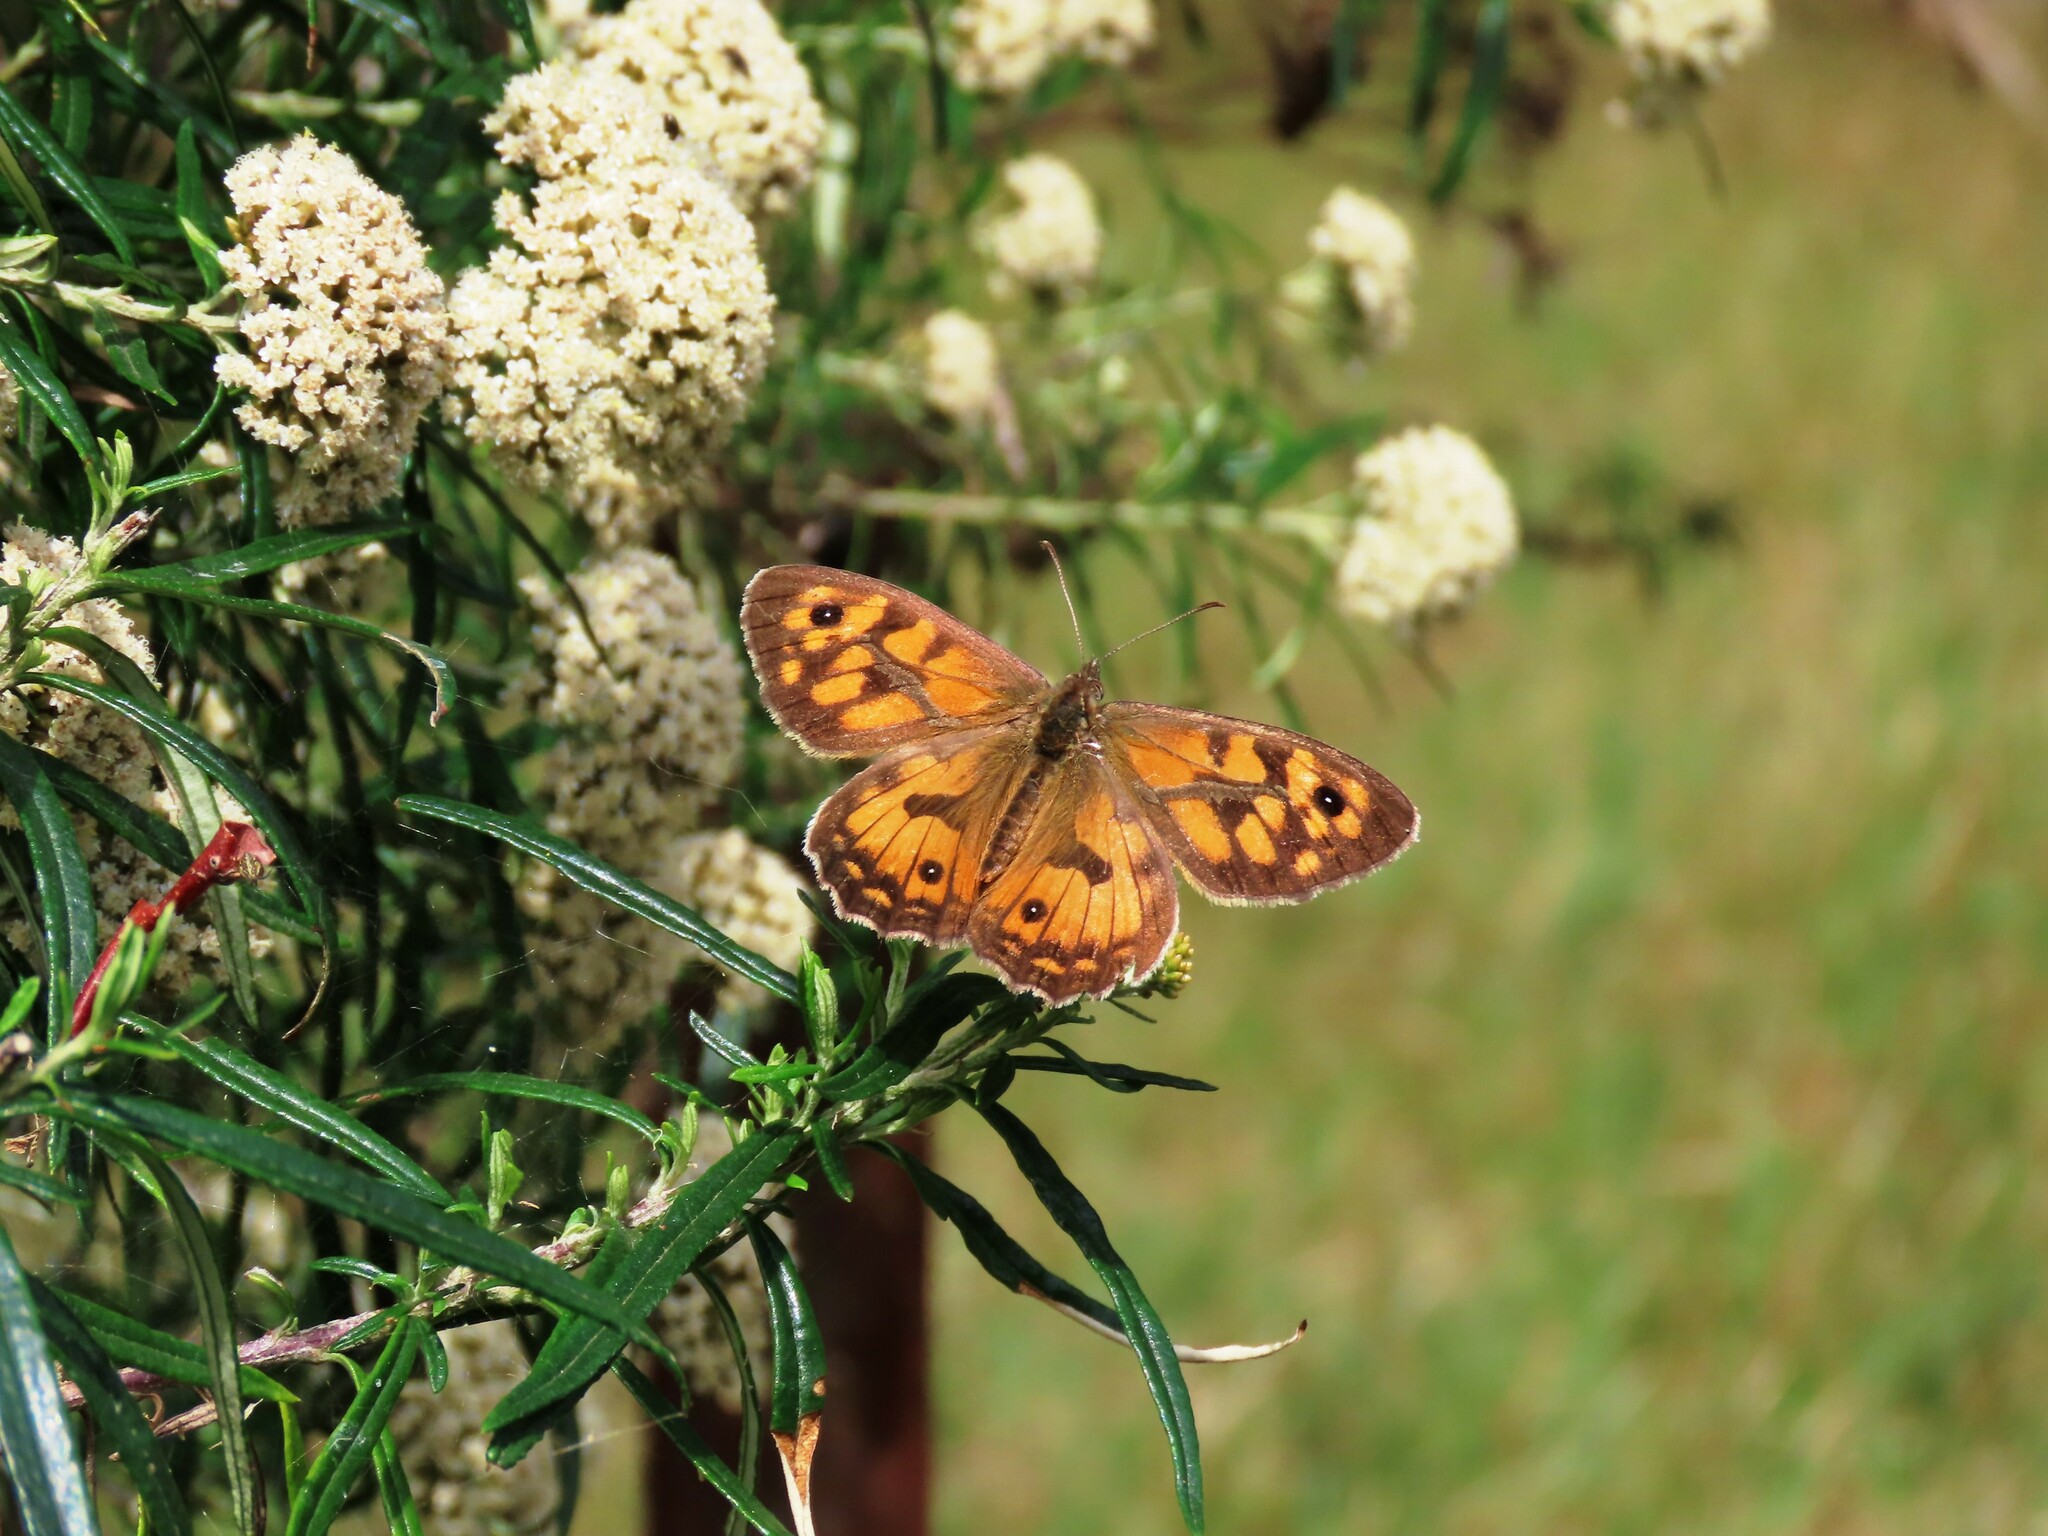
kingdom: Animalia
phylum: Arthropoda
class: Insecta
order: Lepidoptera
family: Nymphalidae
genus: Geitoneura
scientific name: Geitoneura klugii
